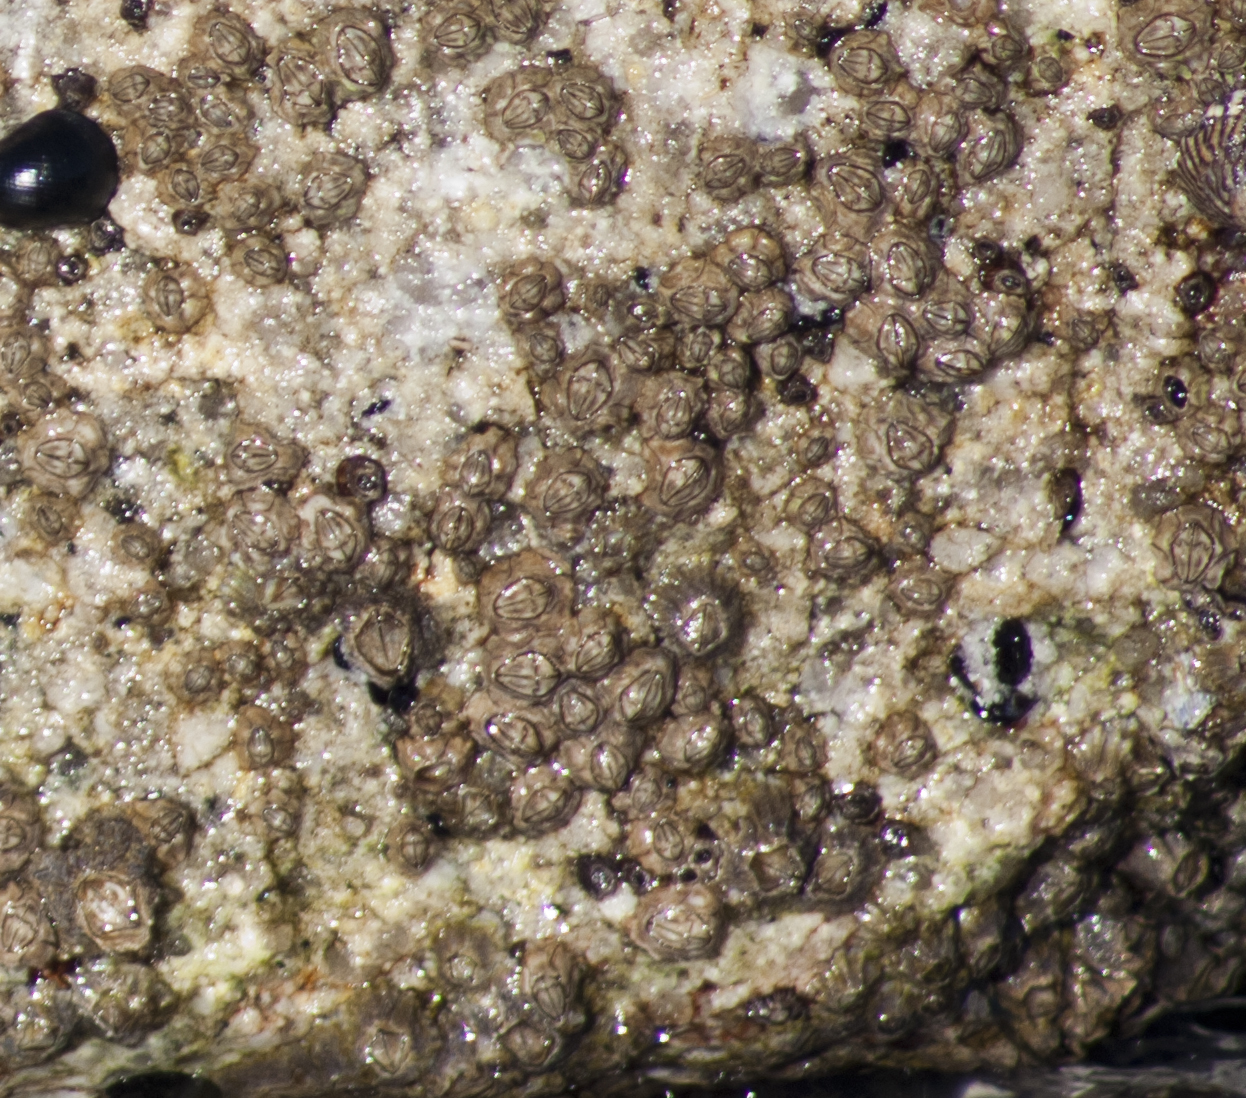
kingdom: Animalia
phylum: Arthropoda
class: Maxillopoda
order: Sessilia
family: Chthamalidae
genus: Chthamalus
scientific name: Chthamalus antennatus
